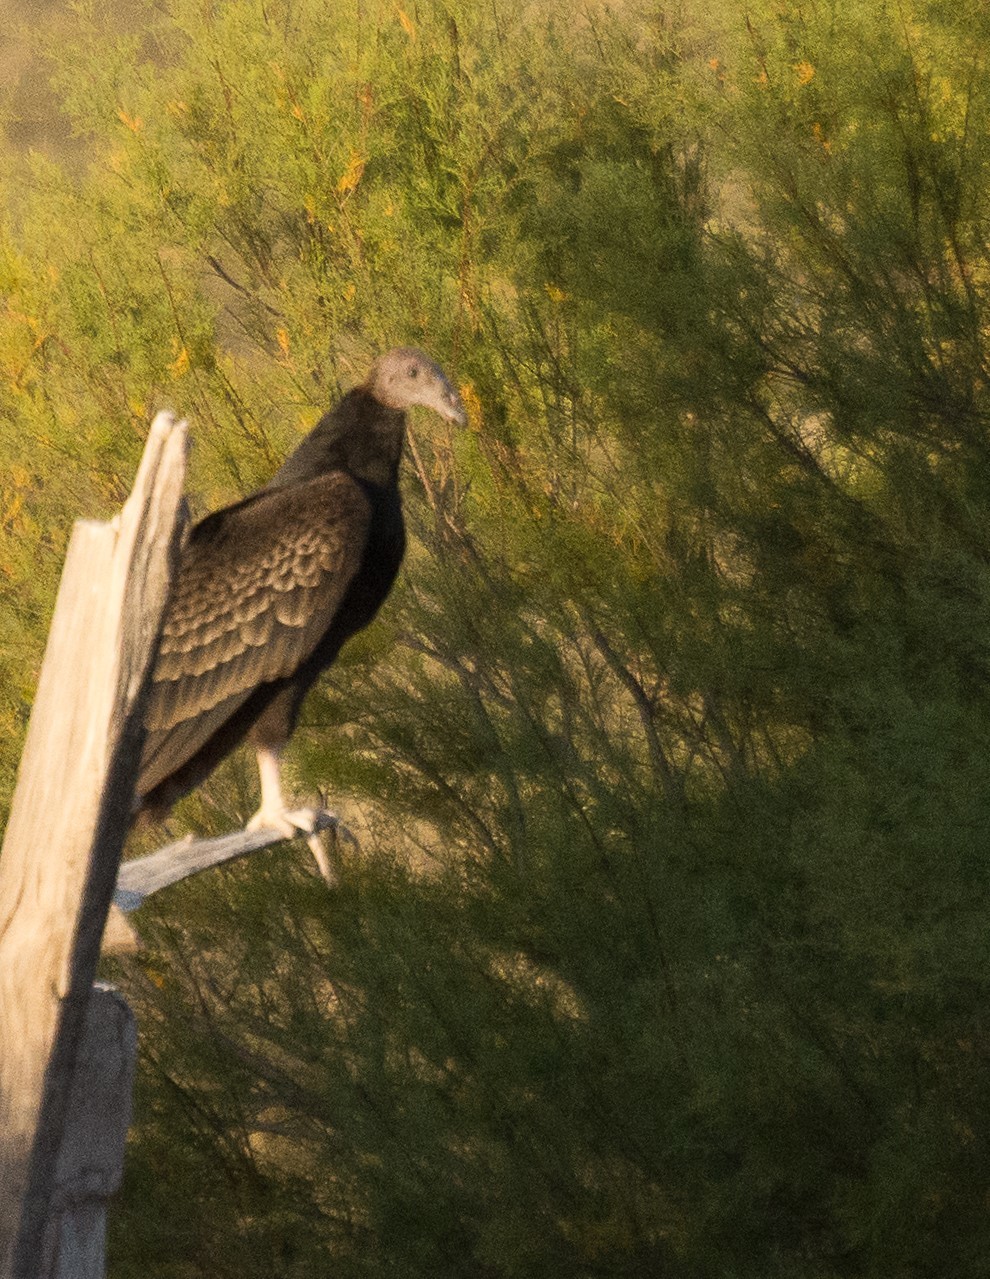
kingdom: Animalia
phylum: Chordata
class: Aves
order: Accipitriformes
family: Cathartidae
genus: Cathartes
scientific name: Cathartes aura
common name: Turkey vulture
